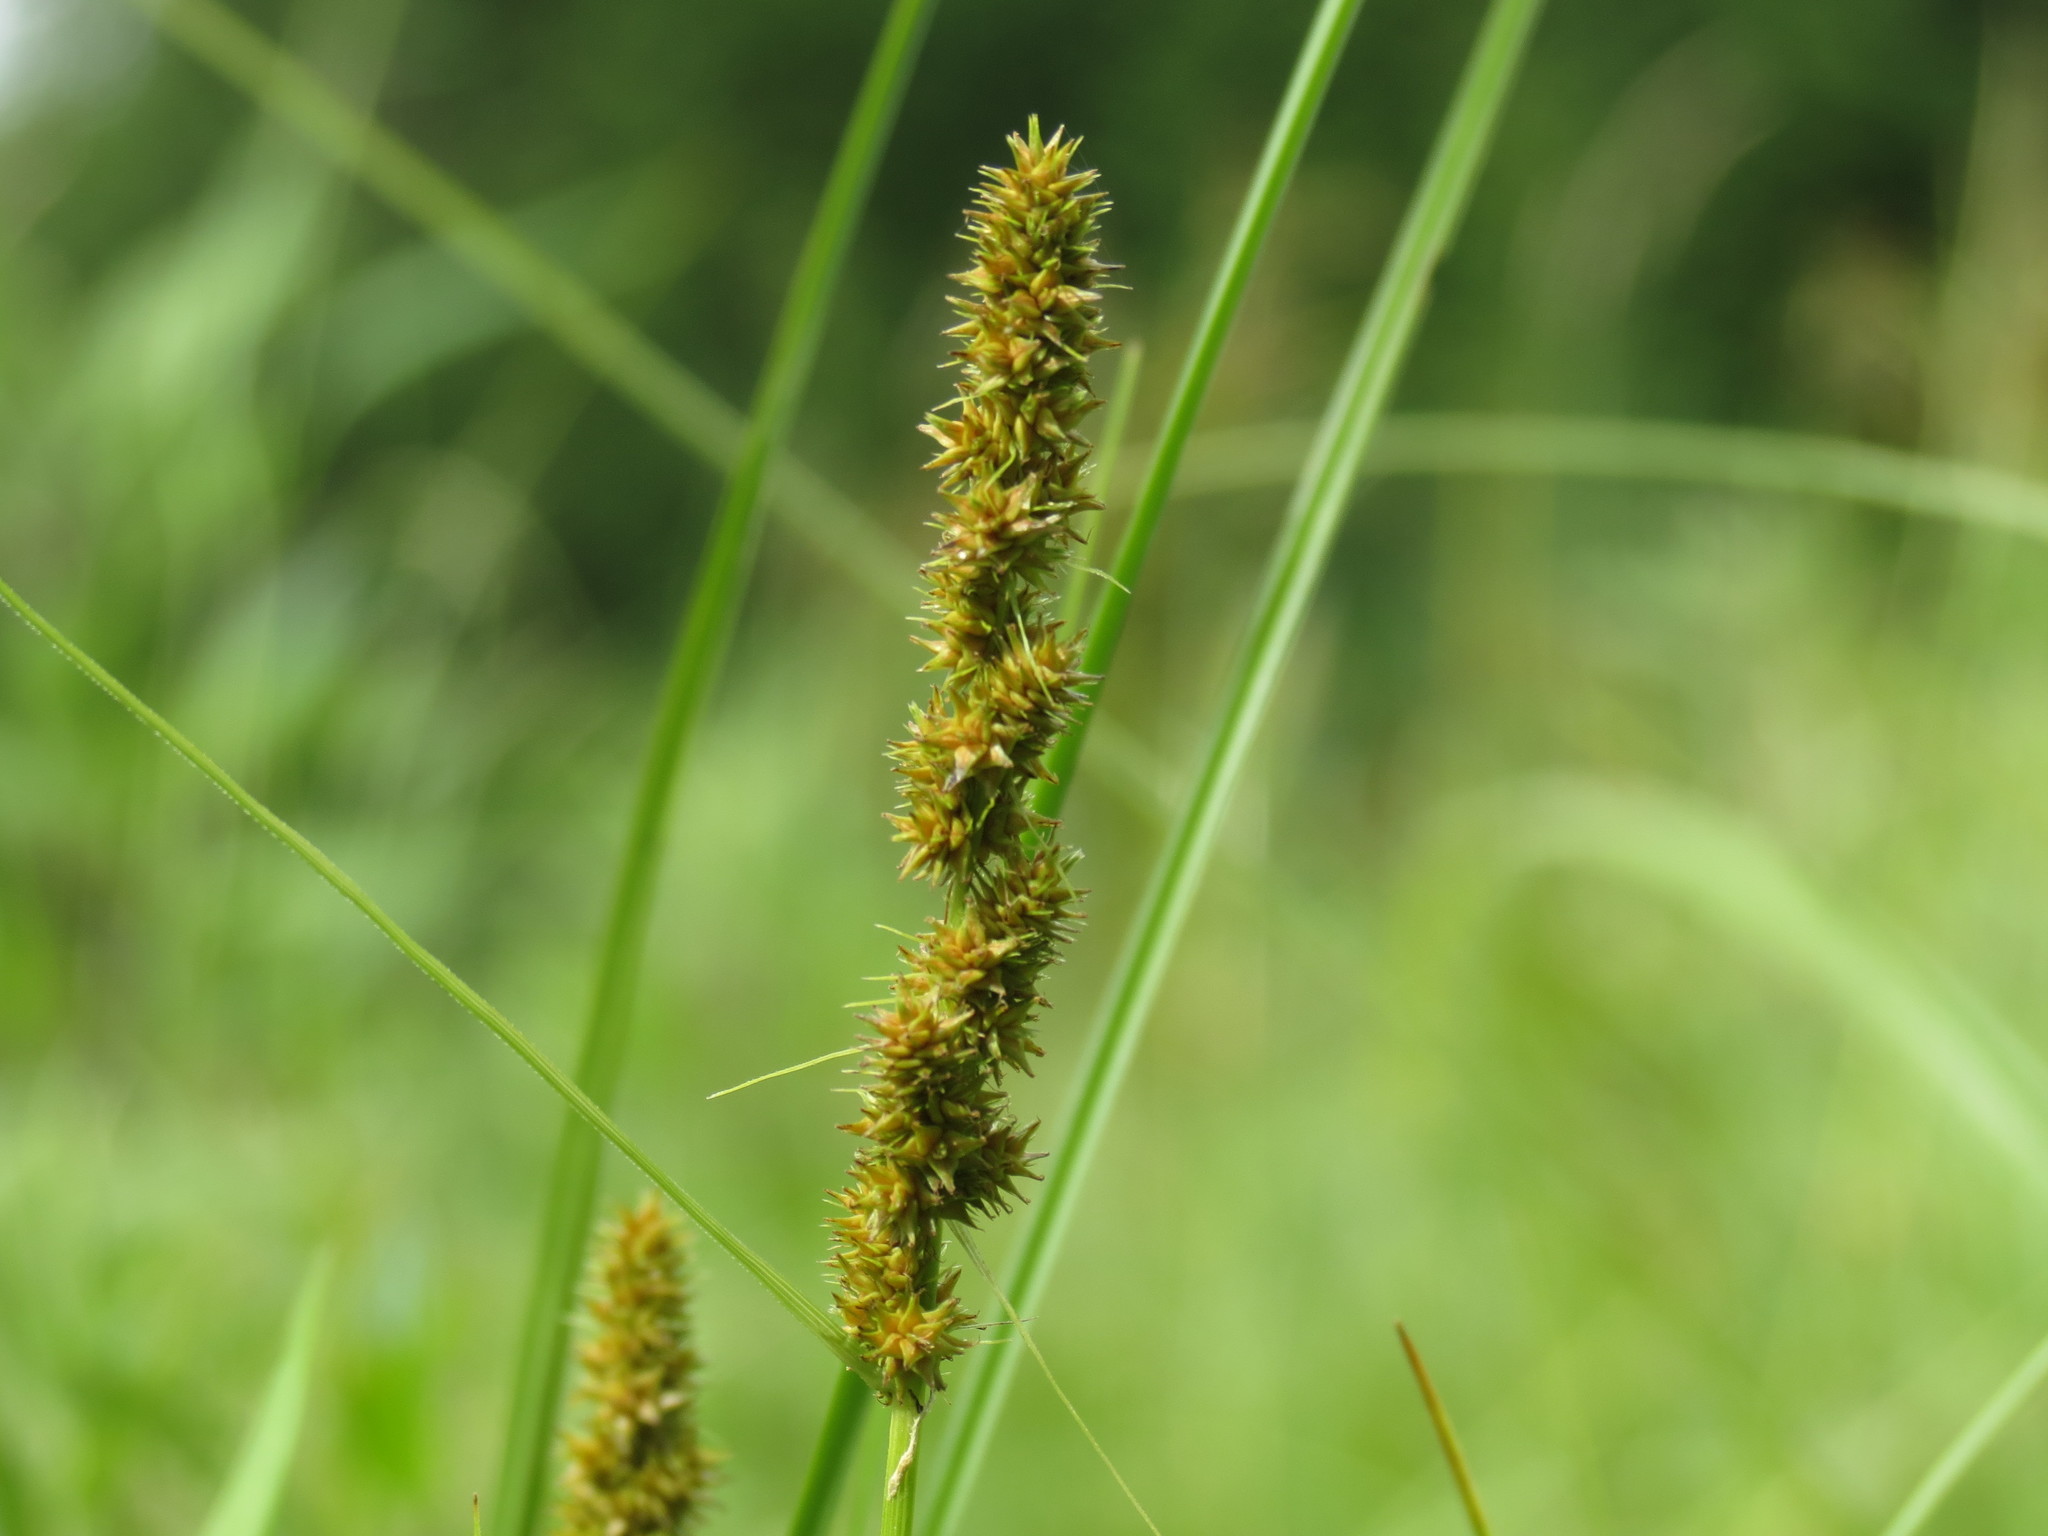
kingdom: Plantae
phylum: Tracheophyta
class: Liliopsida
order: Poales
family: Cyperaceae
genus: Carex
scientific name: Carex vulpinoidea
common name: American fox-sedge
